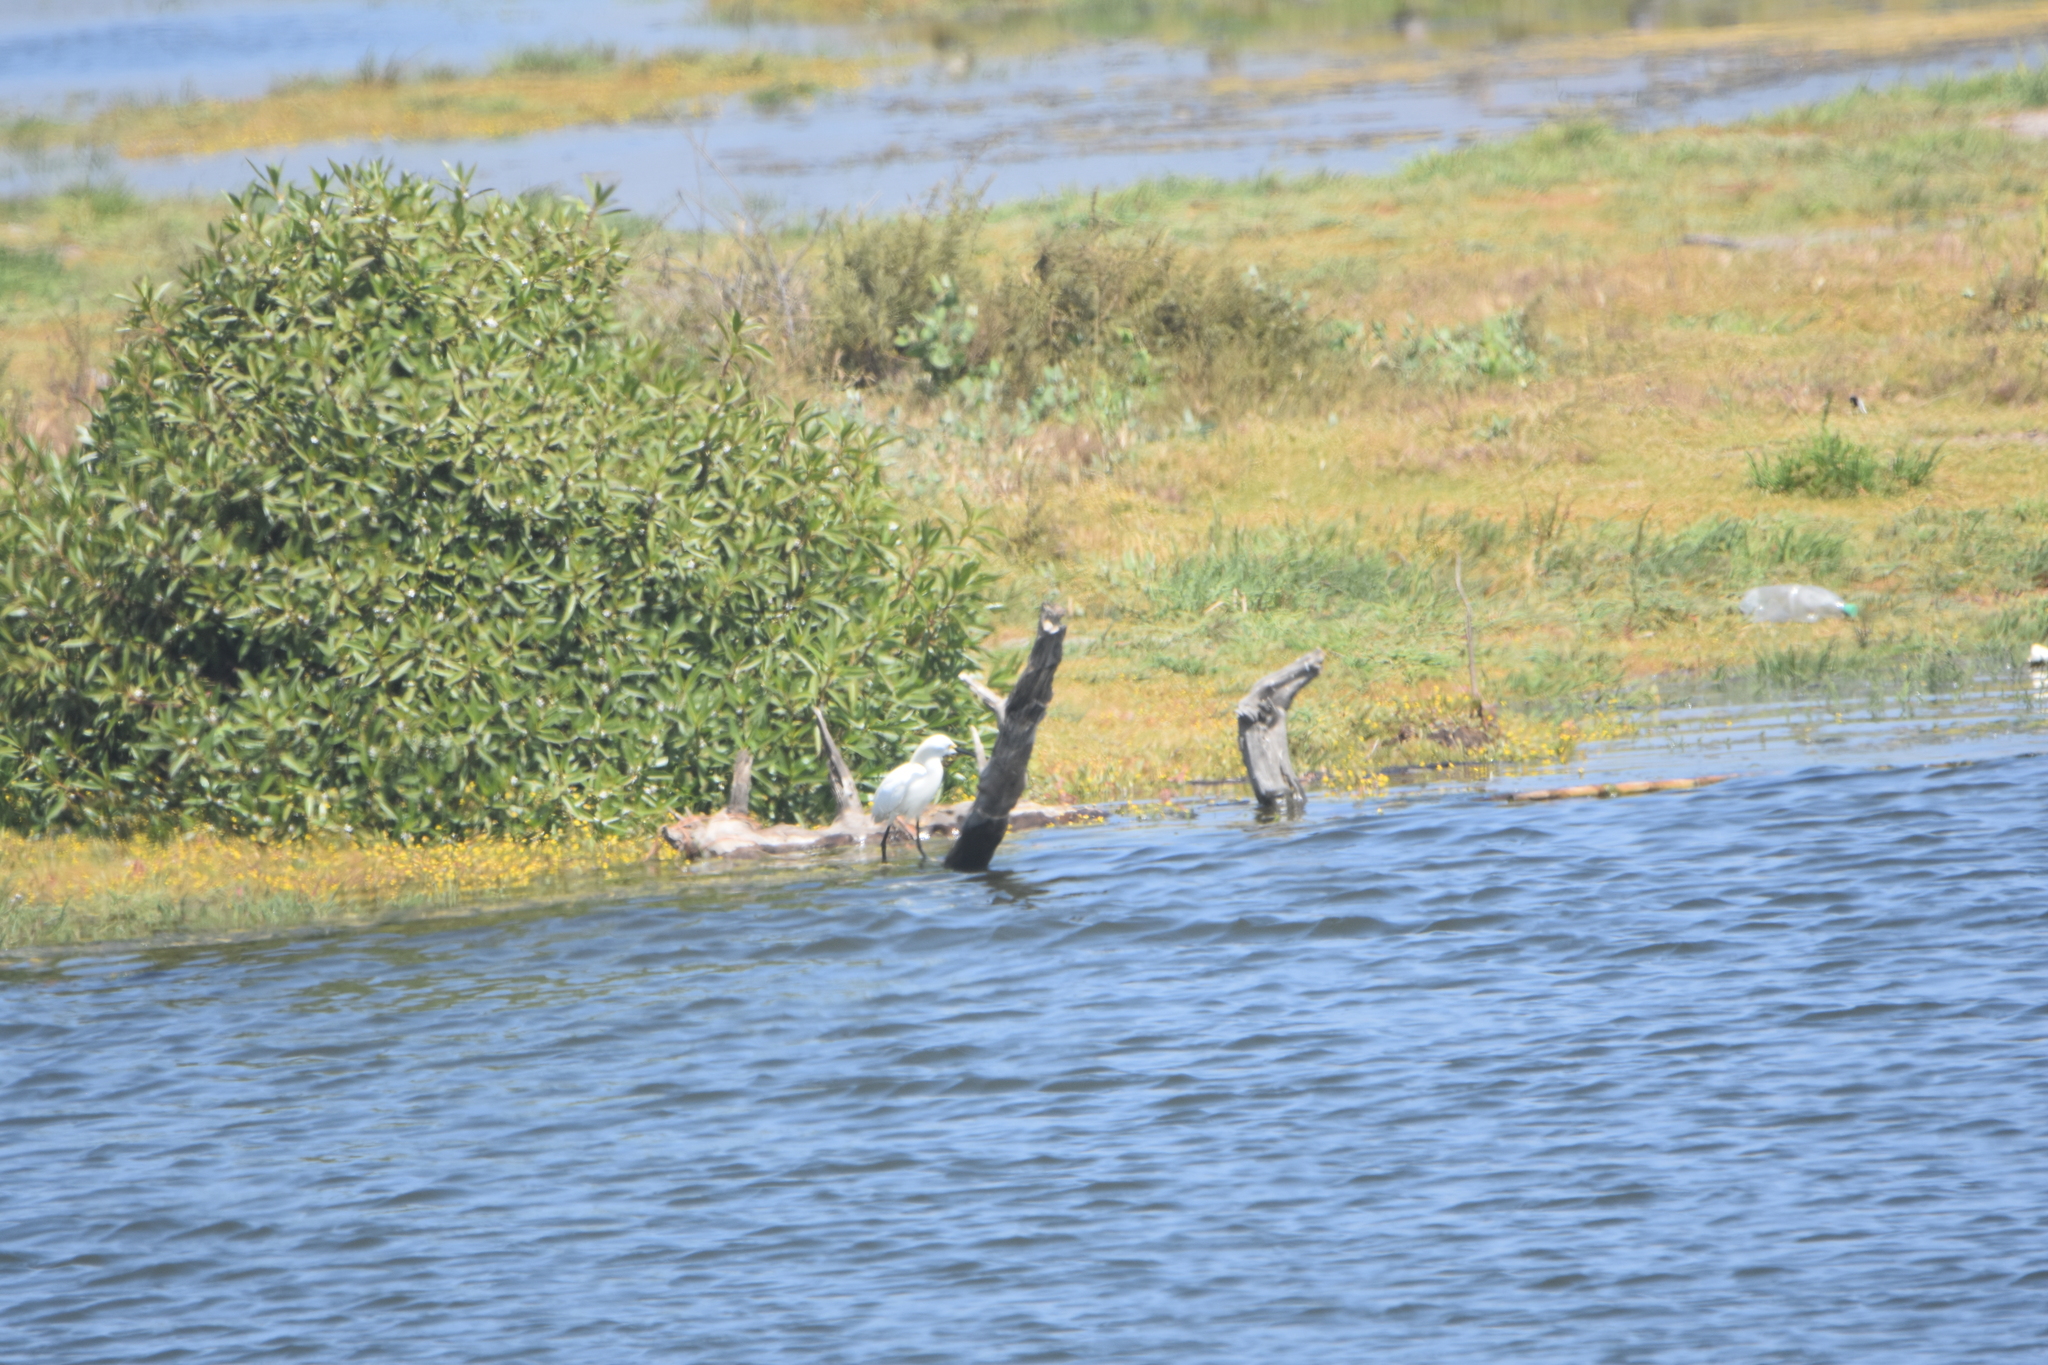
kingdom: Animalia
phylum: Chordata
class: Aves
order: Pelecaniformes
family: Ardeidae
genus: Egretta
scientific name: Egretta thula
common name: Snowy egret
